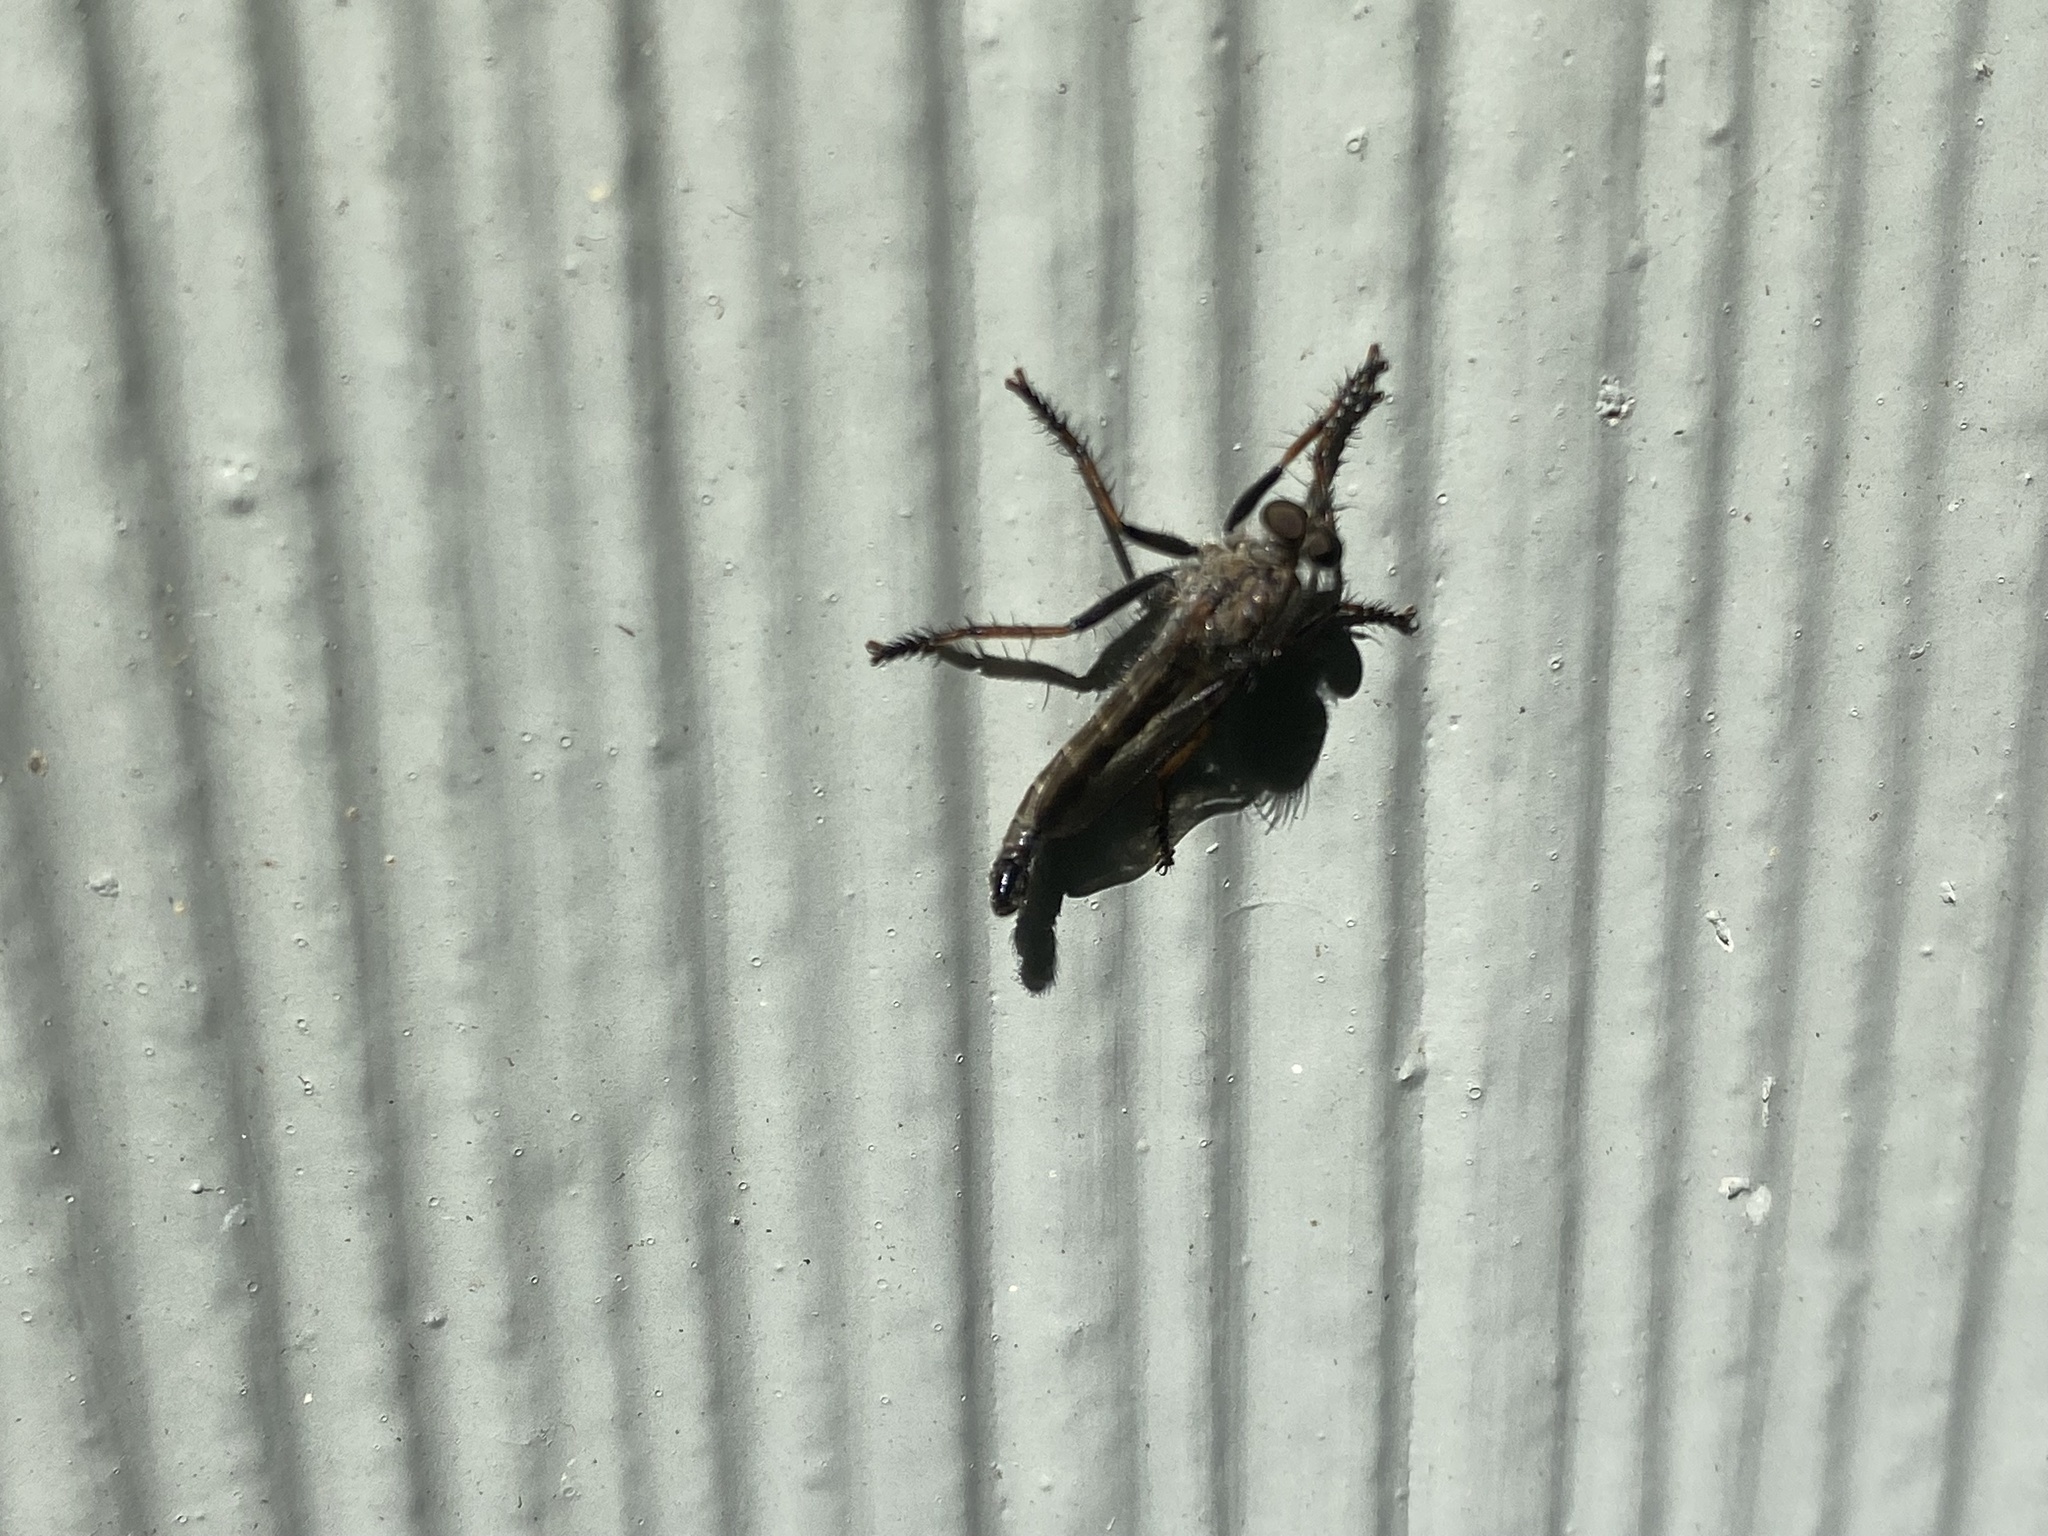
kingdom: Animalia
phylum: Arthropoda
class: Insecta
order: Diptera
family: Asilidae
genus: Machimus
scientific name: Machimus sadyates
